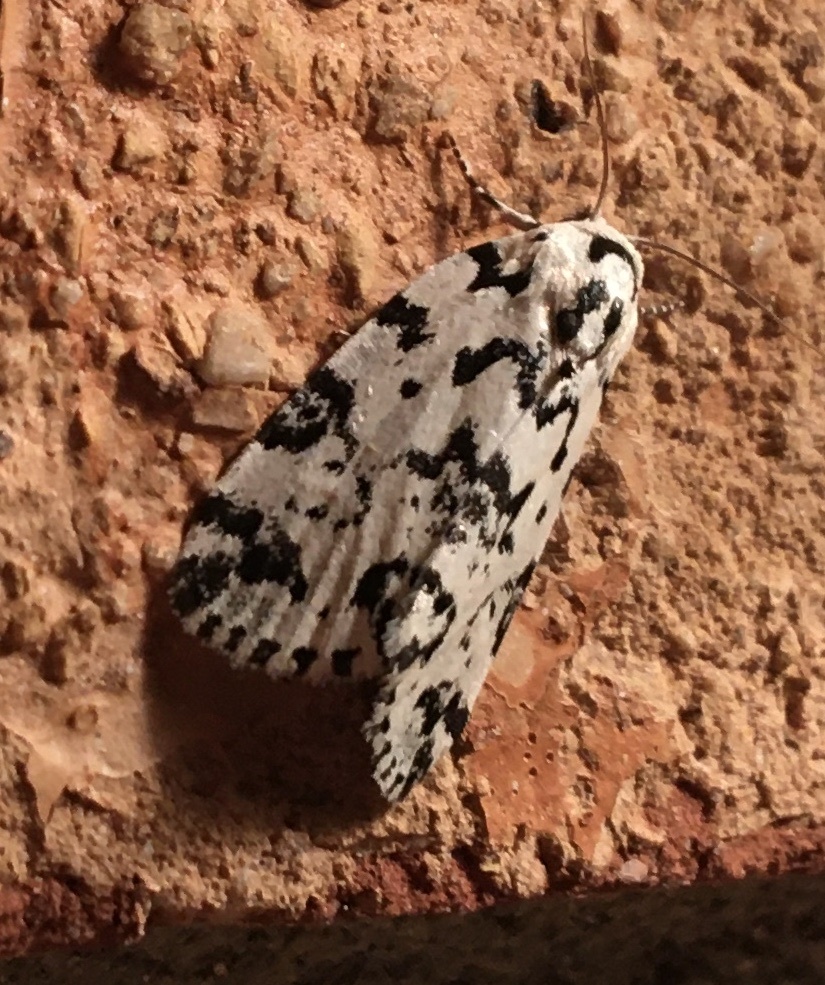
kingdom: Animalia
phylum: Arthropoda
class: Insecta
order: Lepidoptera
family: Noctuidae
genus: Polygrammate
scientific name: Polygrammate hebraeicum
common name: Hebrew moth
